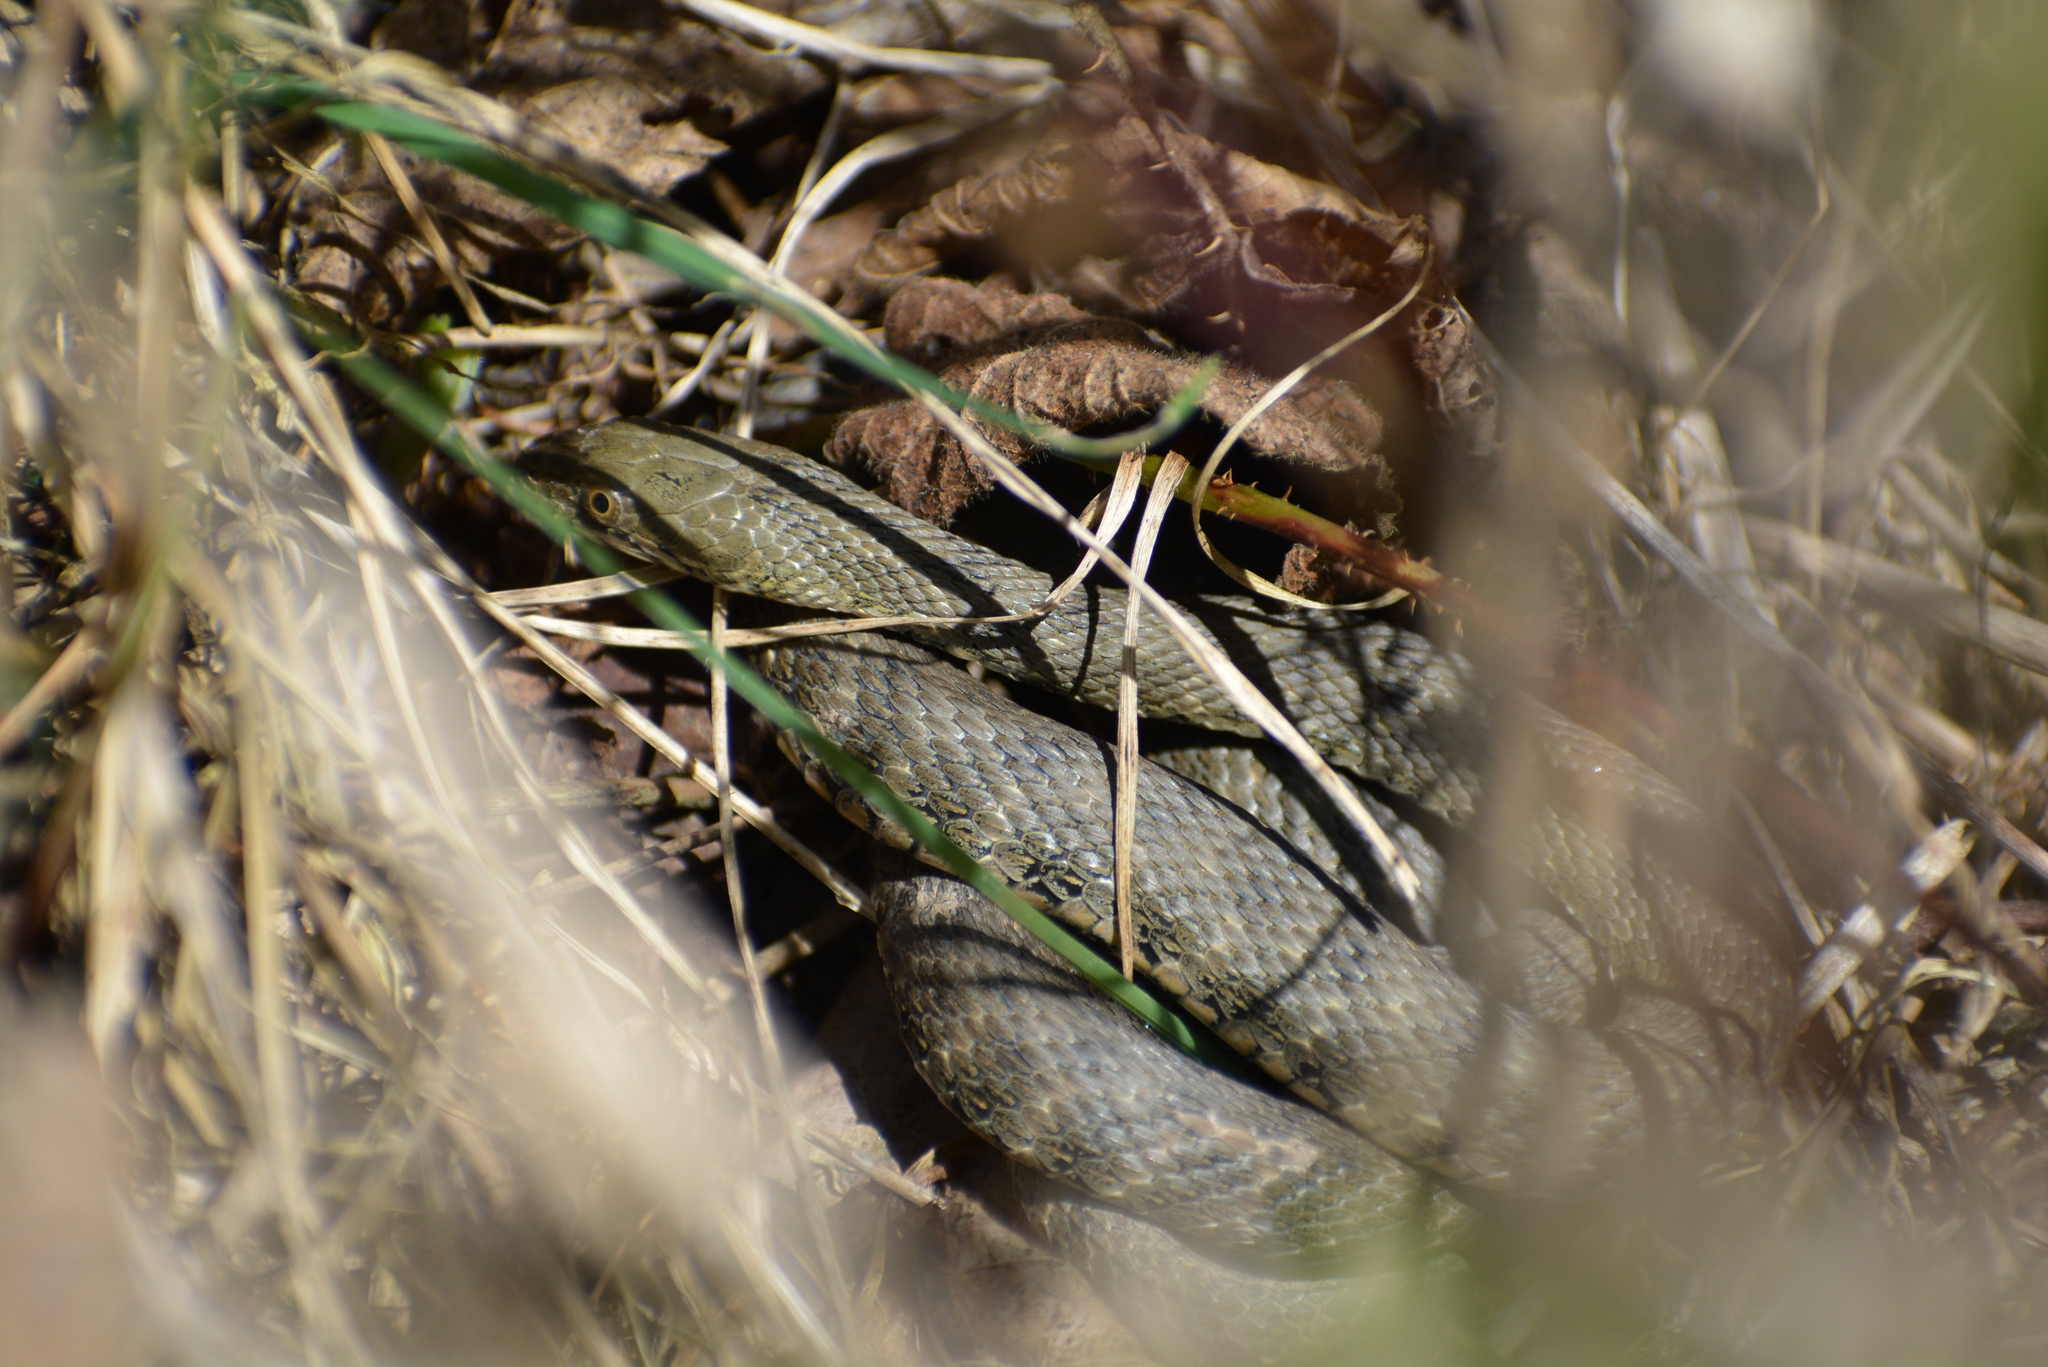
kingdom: Animalia
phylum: Chordata
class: Squamata
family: Colubridae
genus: Natrix
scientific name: Natrix tessellata
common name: Dice snake
